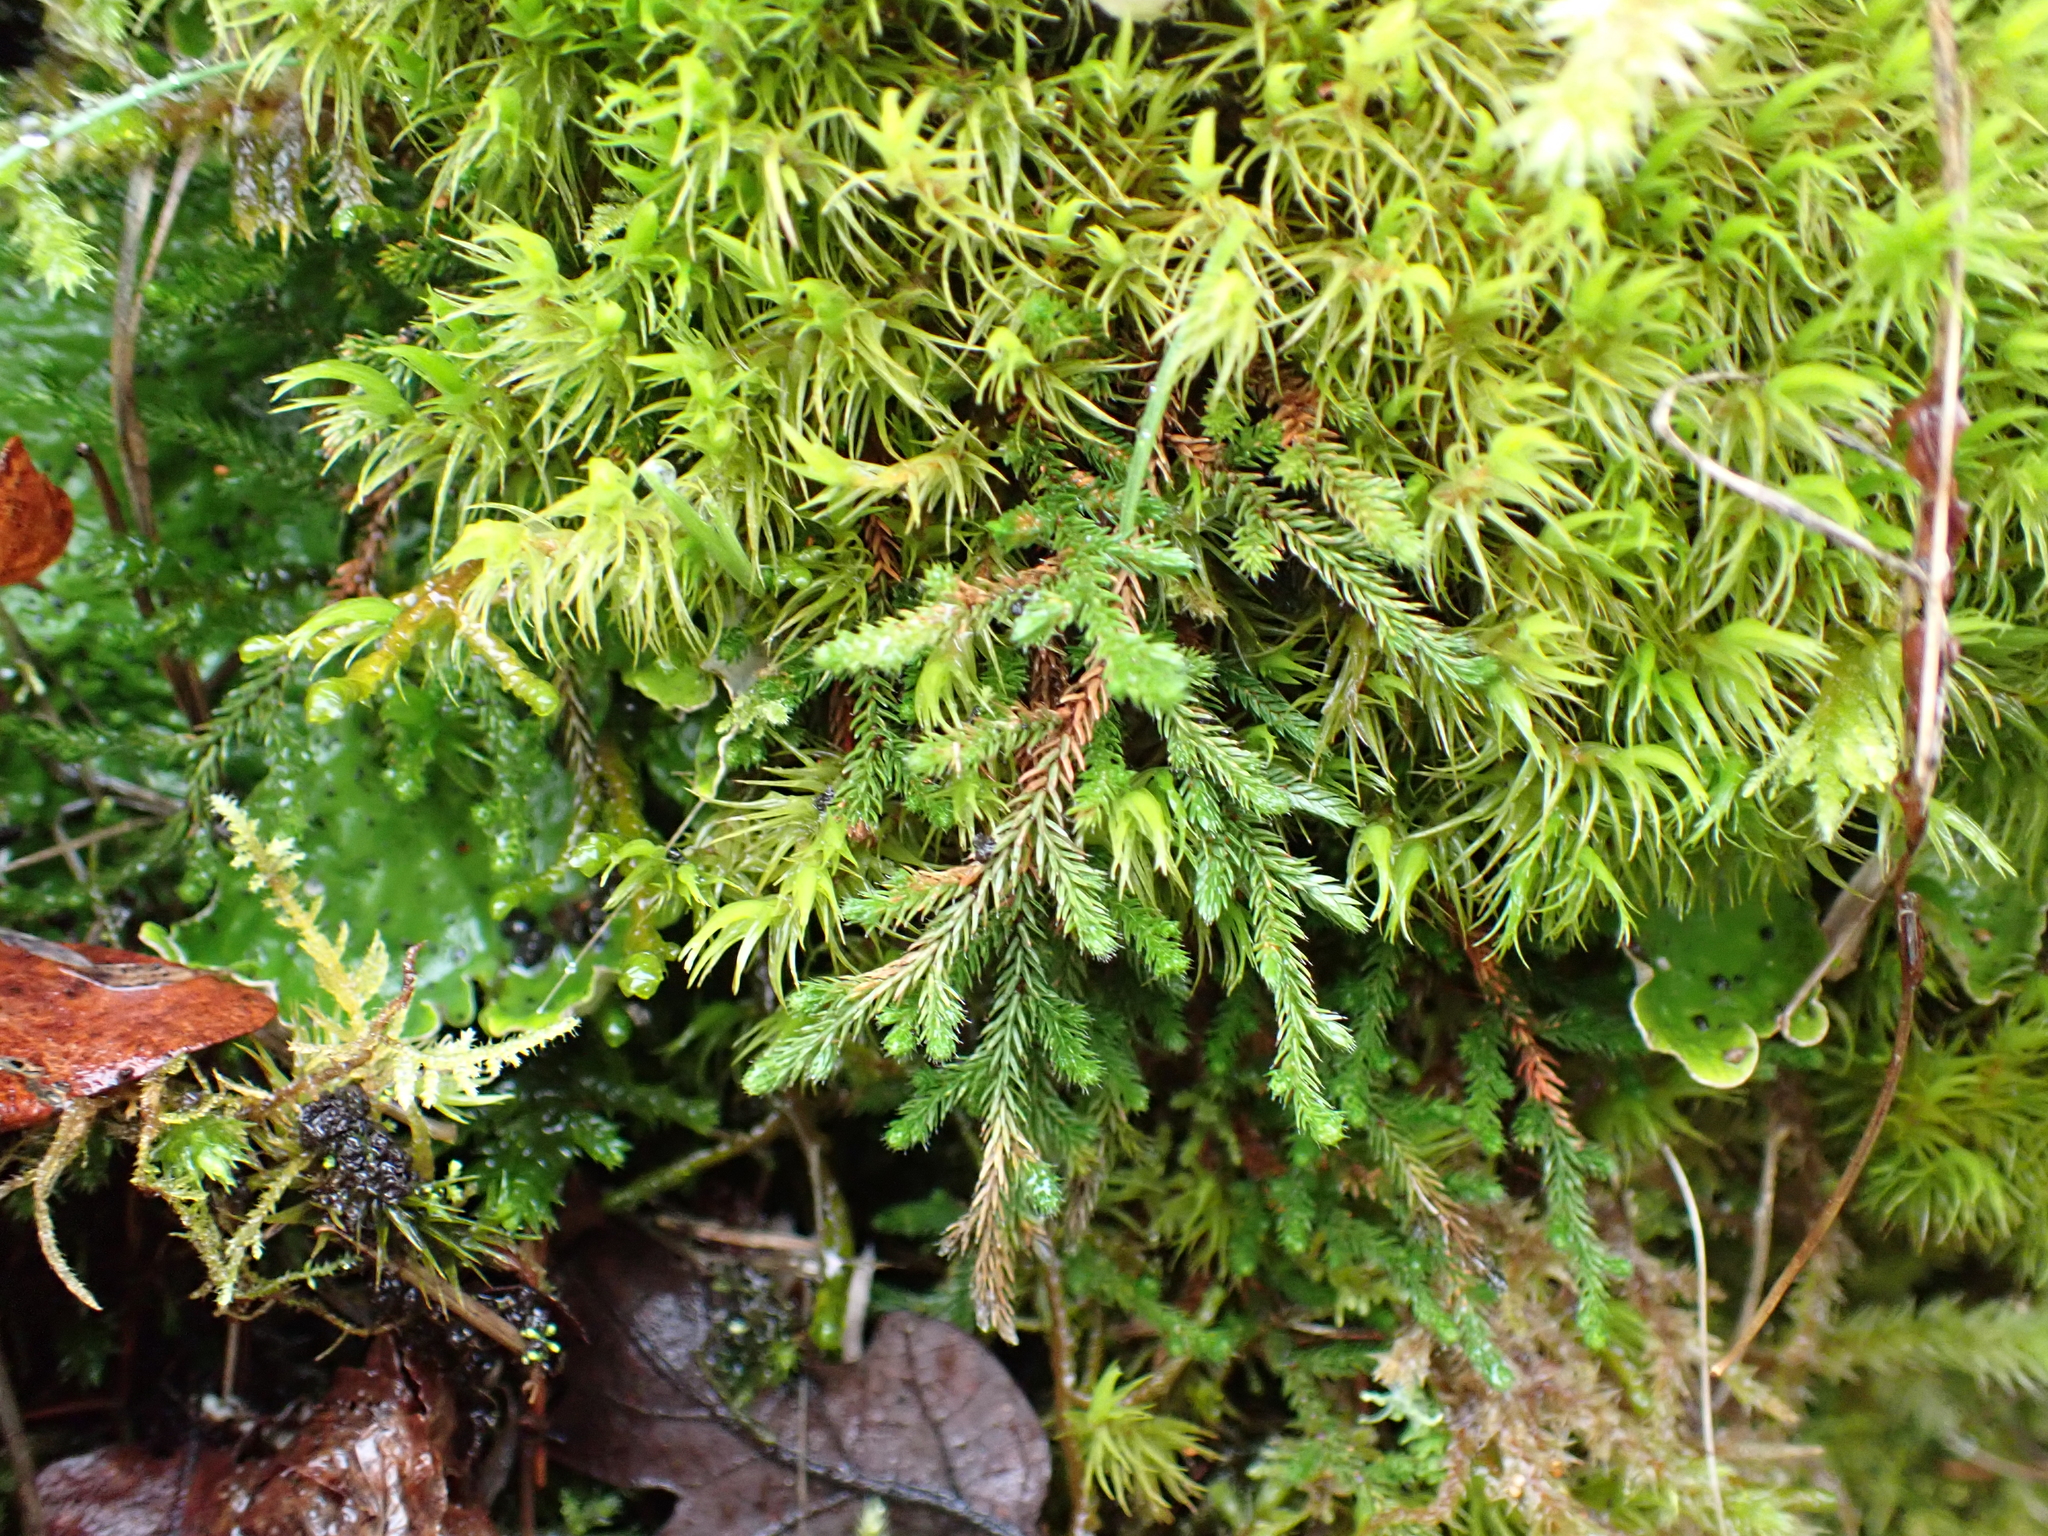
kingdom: Plantae
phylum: Tracheophyta
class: Lycopodiopsida
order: Selaginellales
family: Selaginellaceae
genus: Selaginella
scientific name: Selaginella wallacei
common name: Wallace's selaginella
